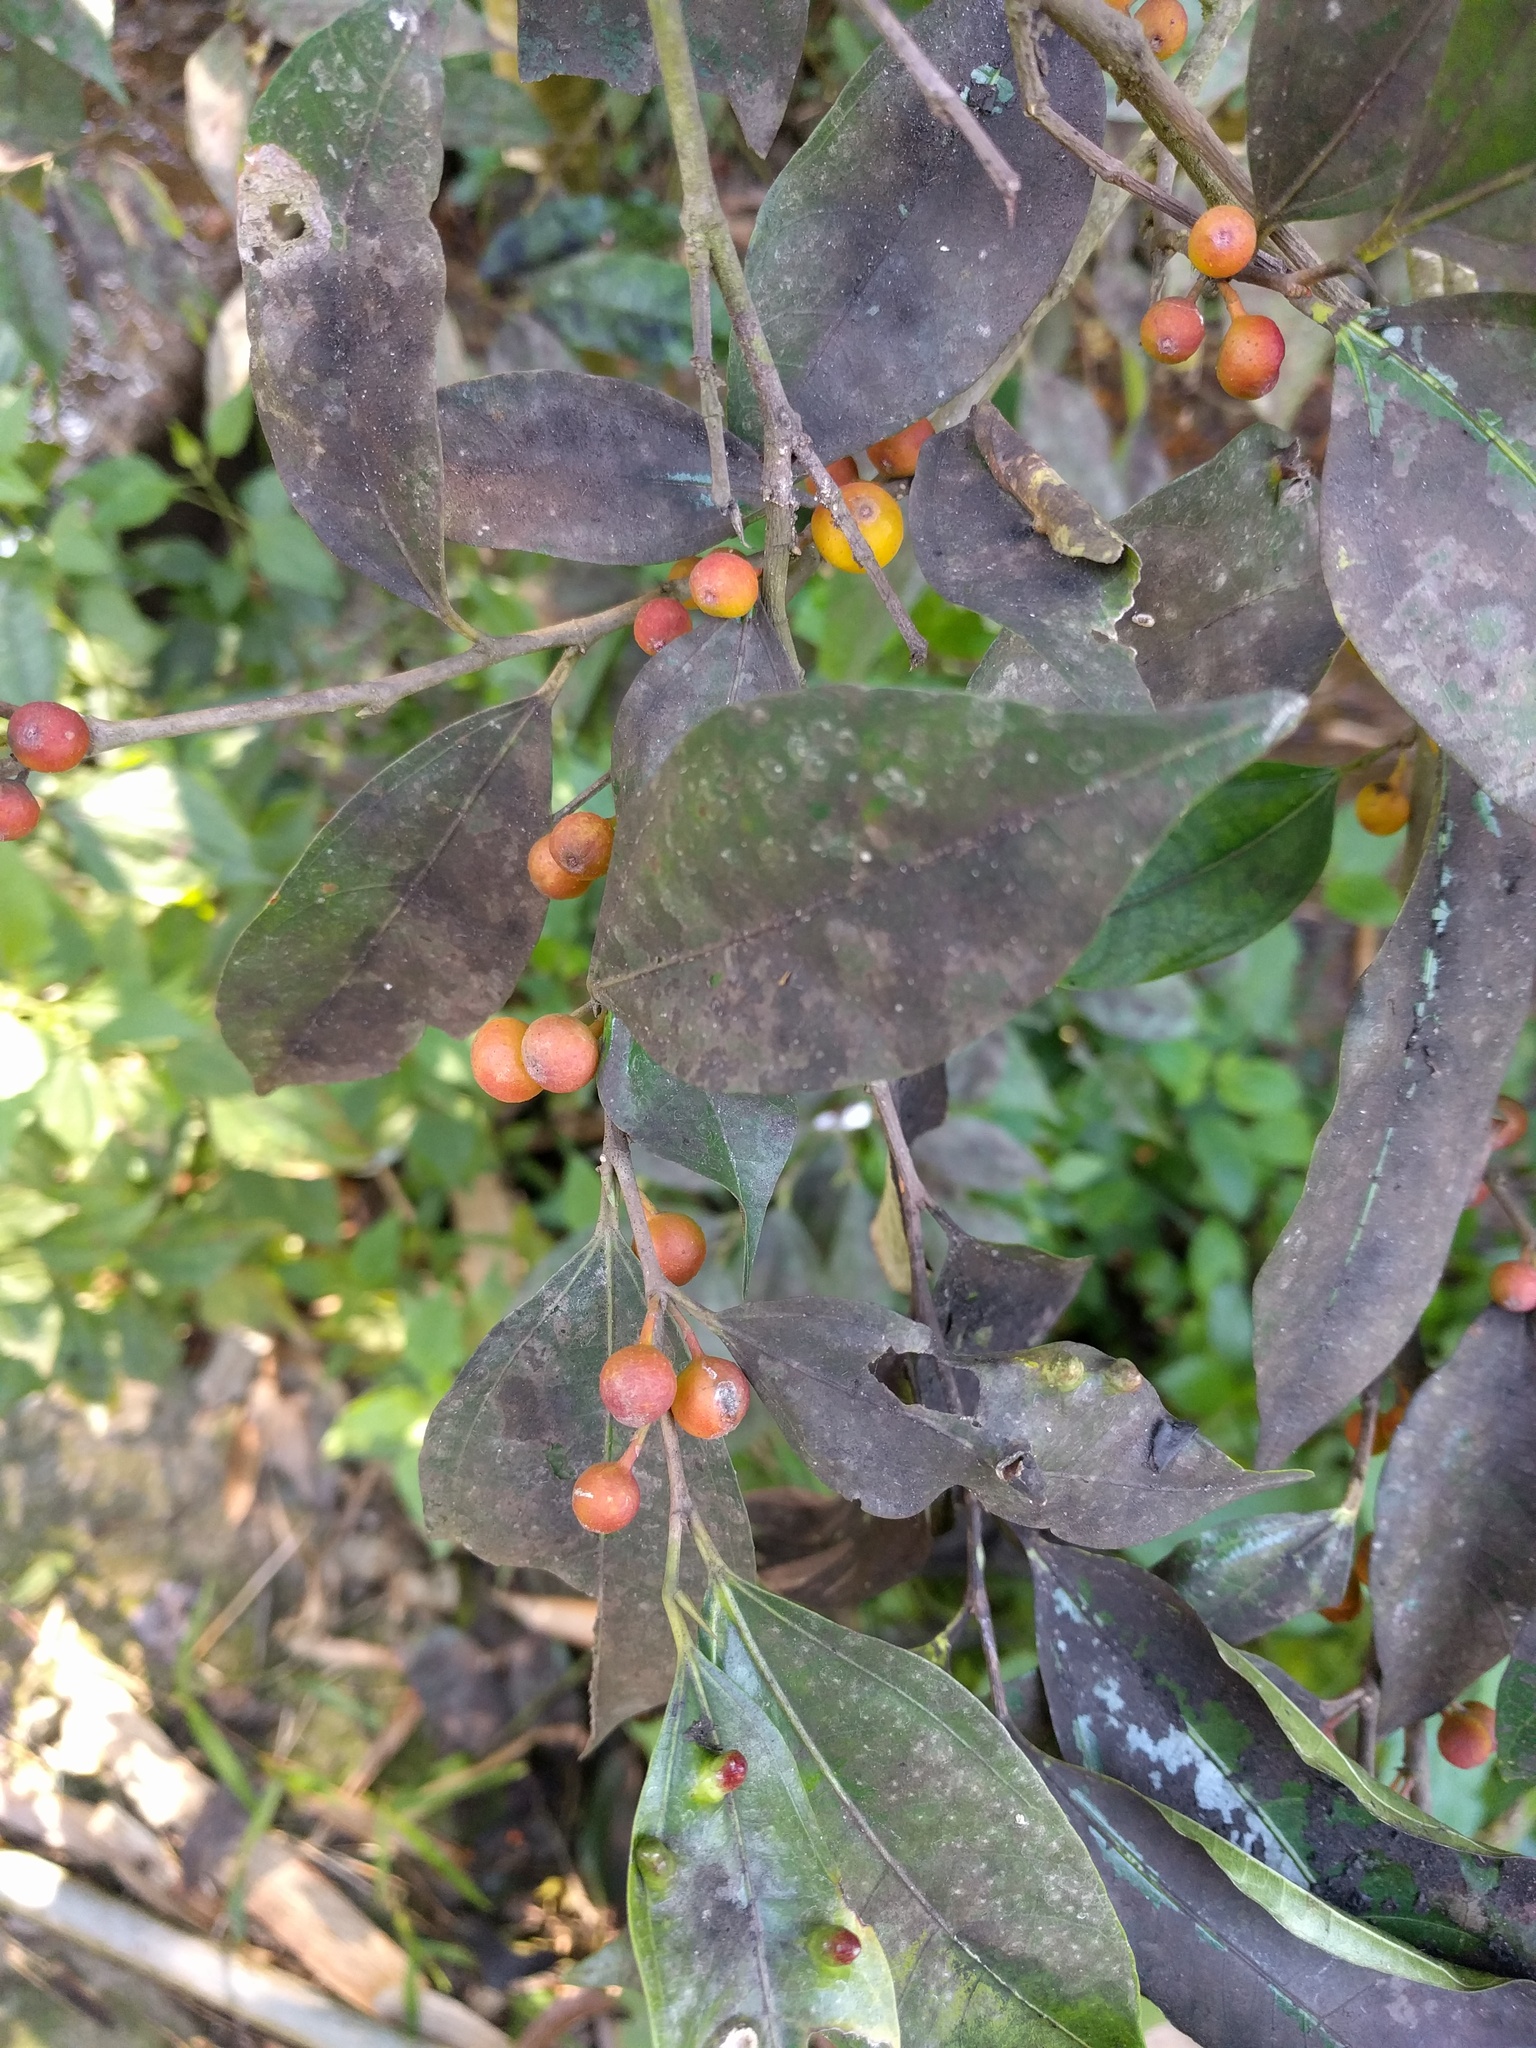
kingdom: Plantae
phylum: Tracheophyta
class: Magnoliopsida
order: Rosales
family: Moraceae
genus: Ficus
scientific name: Ficus ampelos
